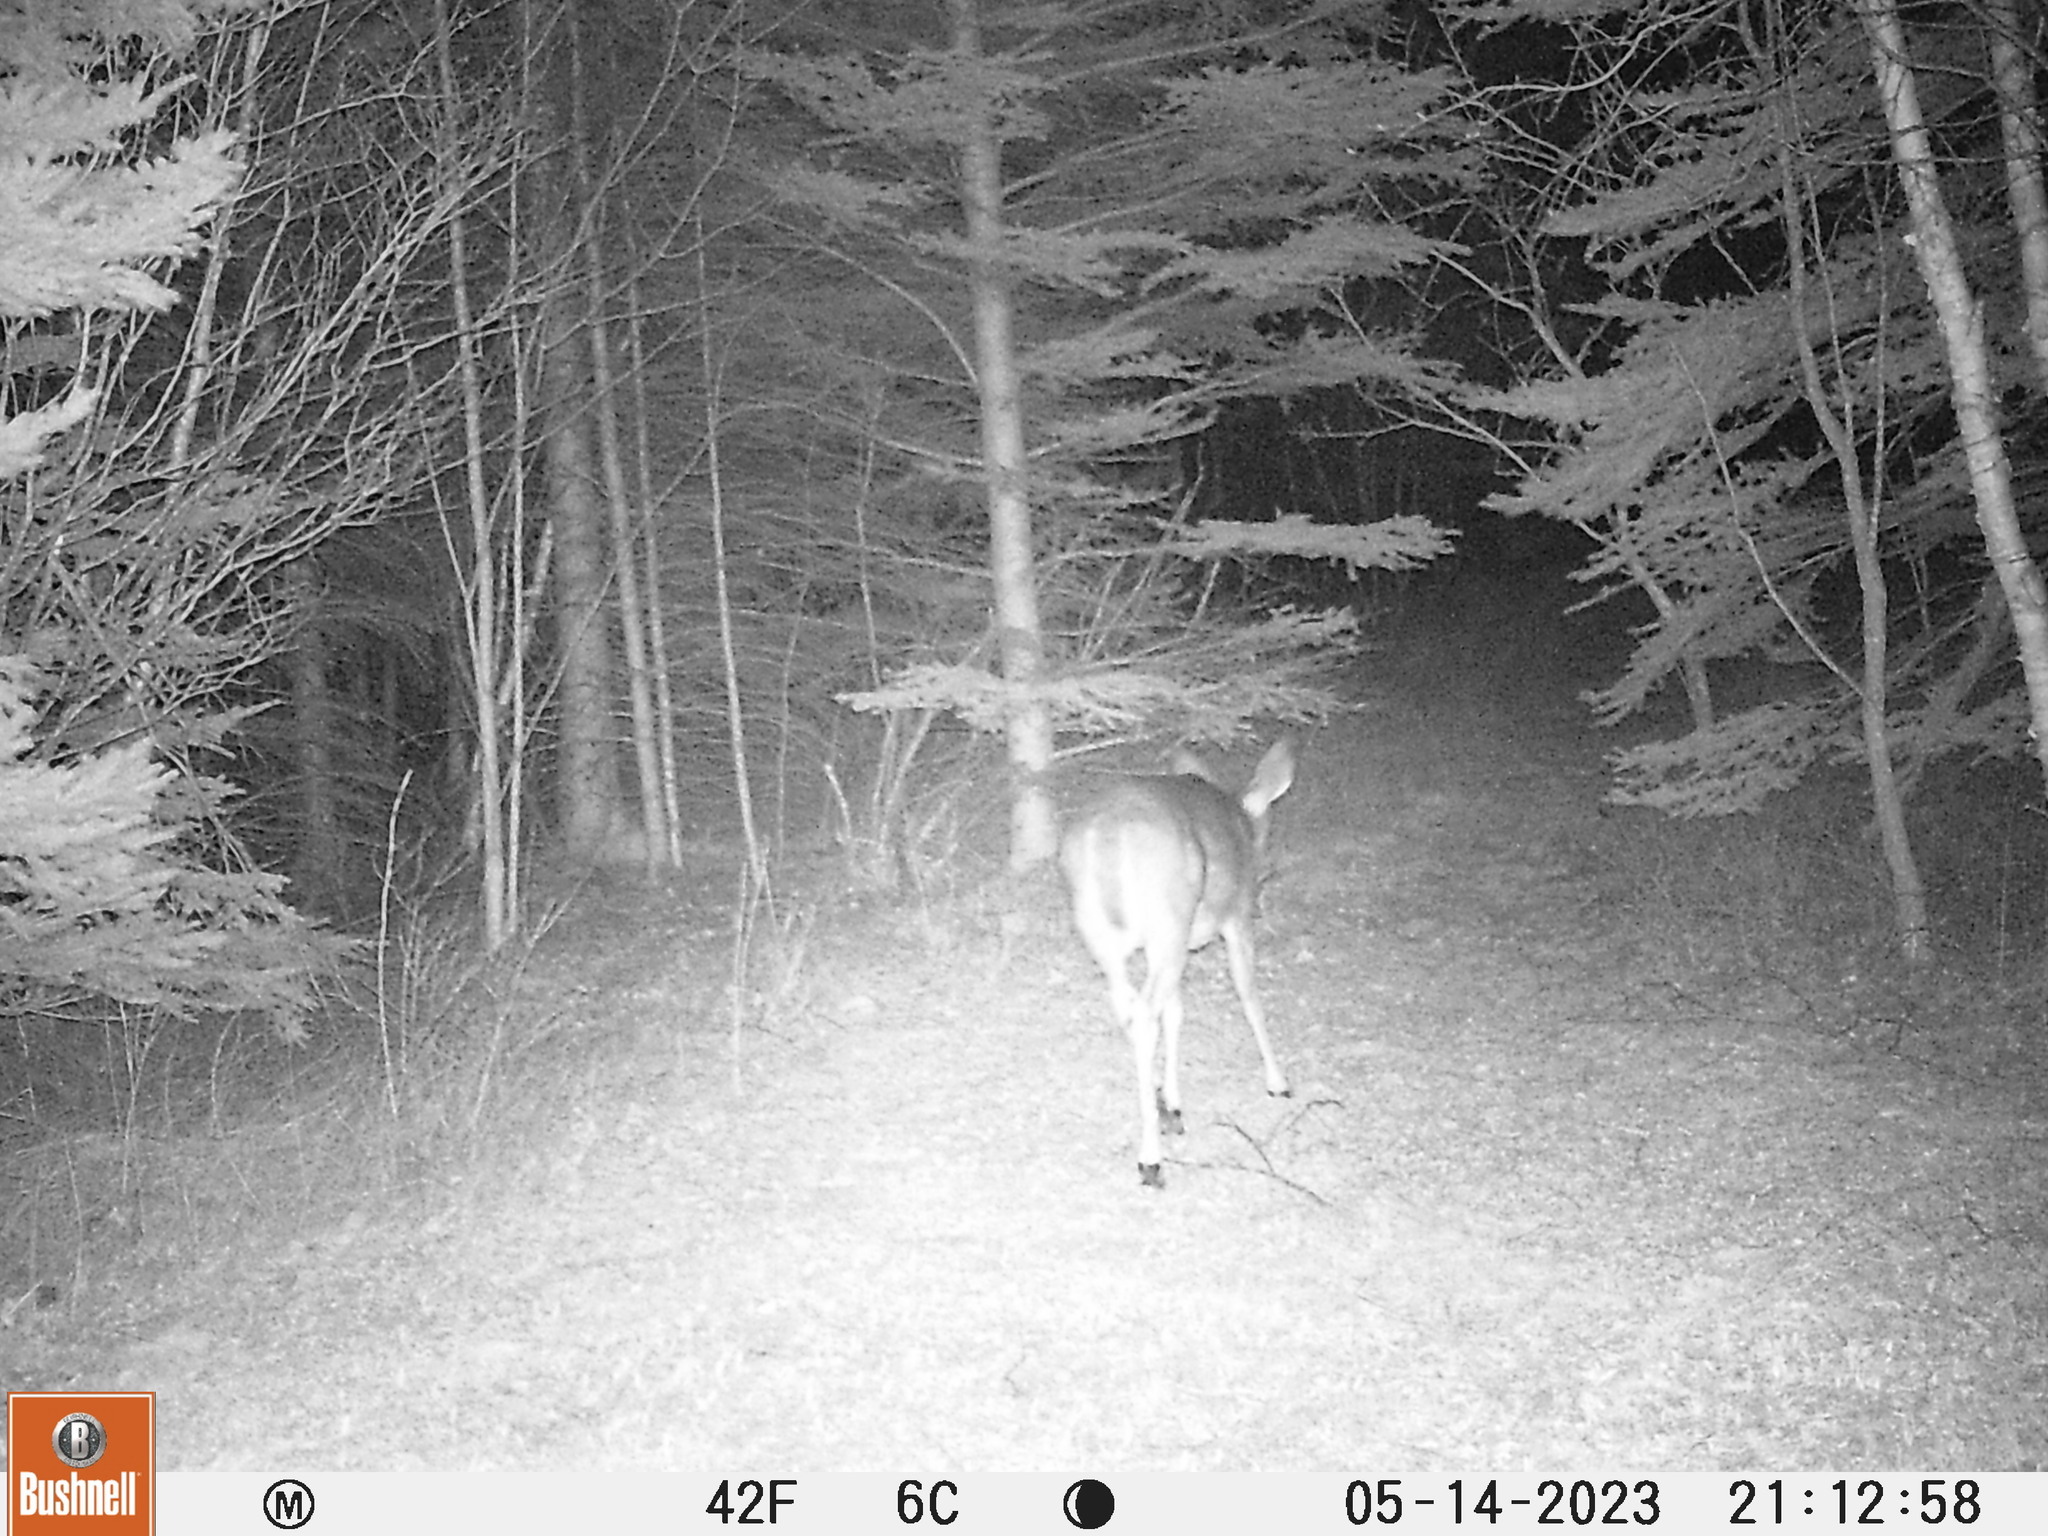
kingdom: Animalia
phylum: Chordata
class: Mammalia
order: Artiodactyla
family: Cervidae
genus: Odocoileus
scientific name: Odocoileus virginianus
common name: White-tailed deer
